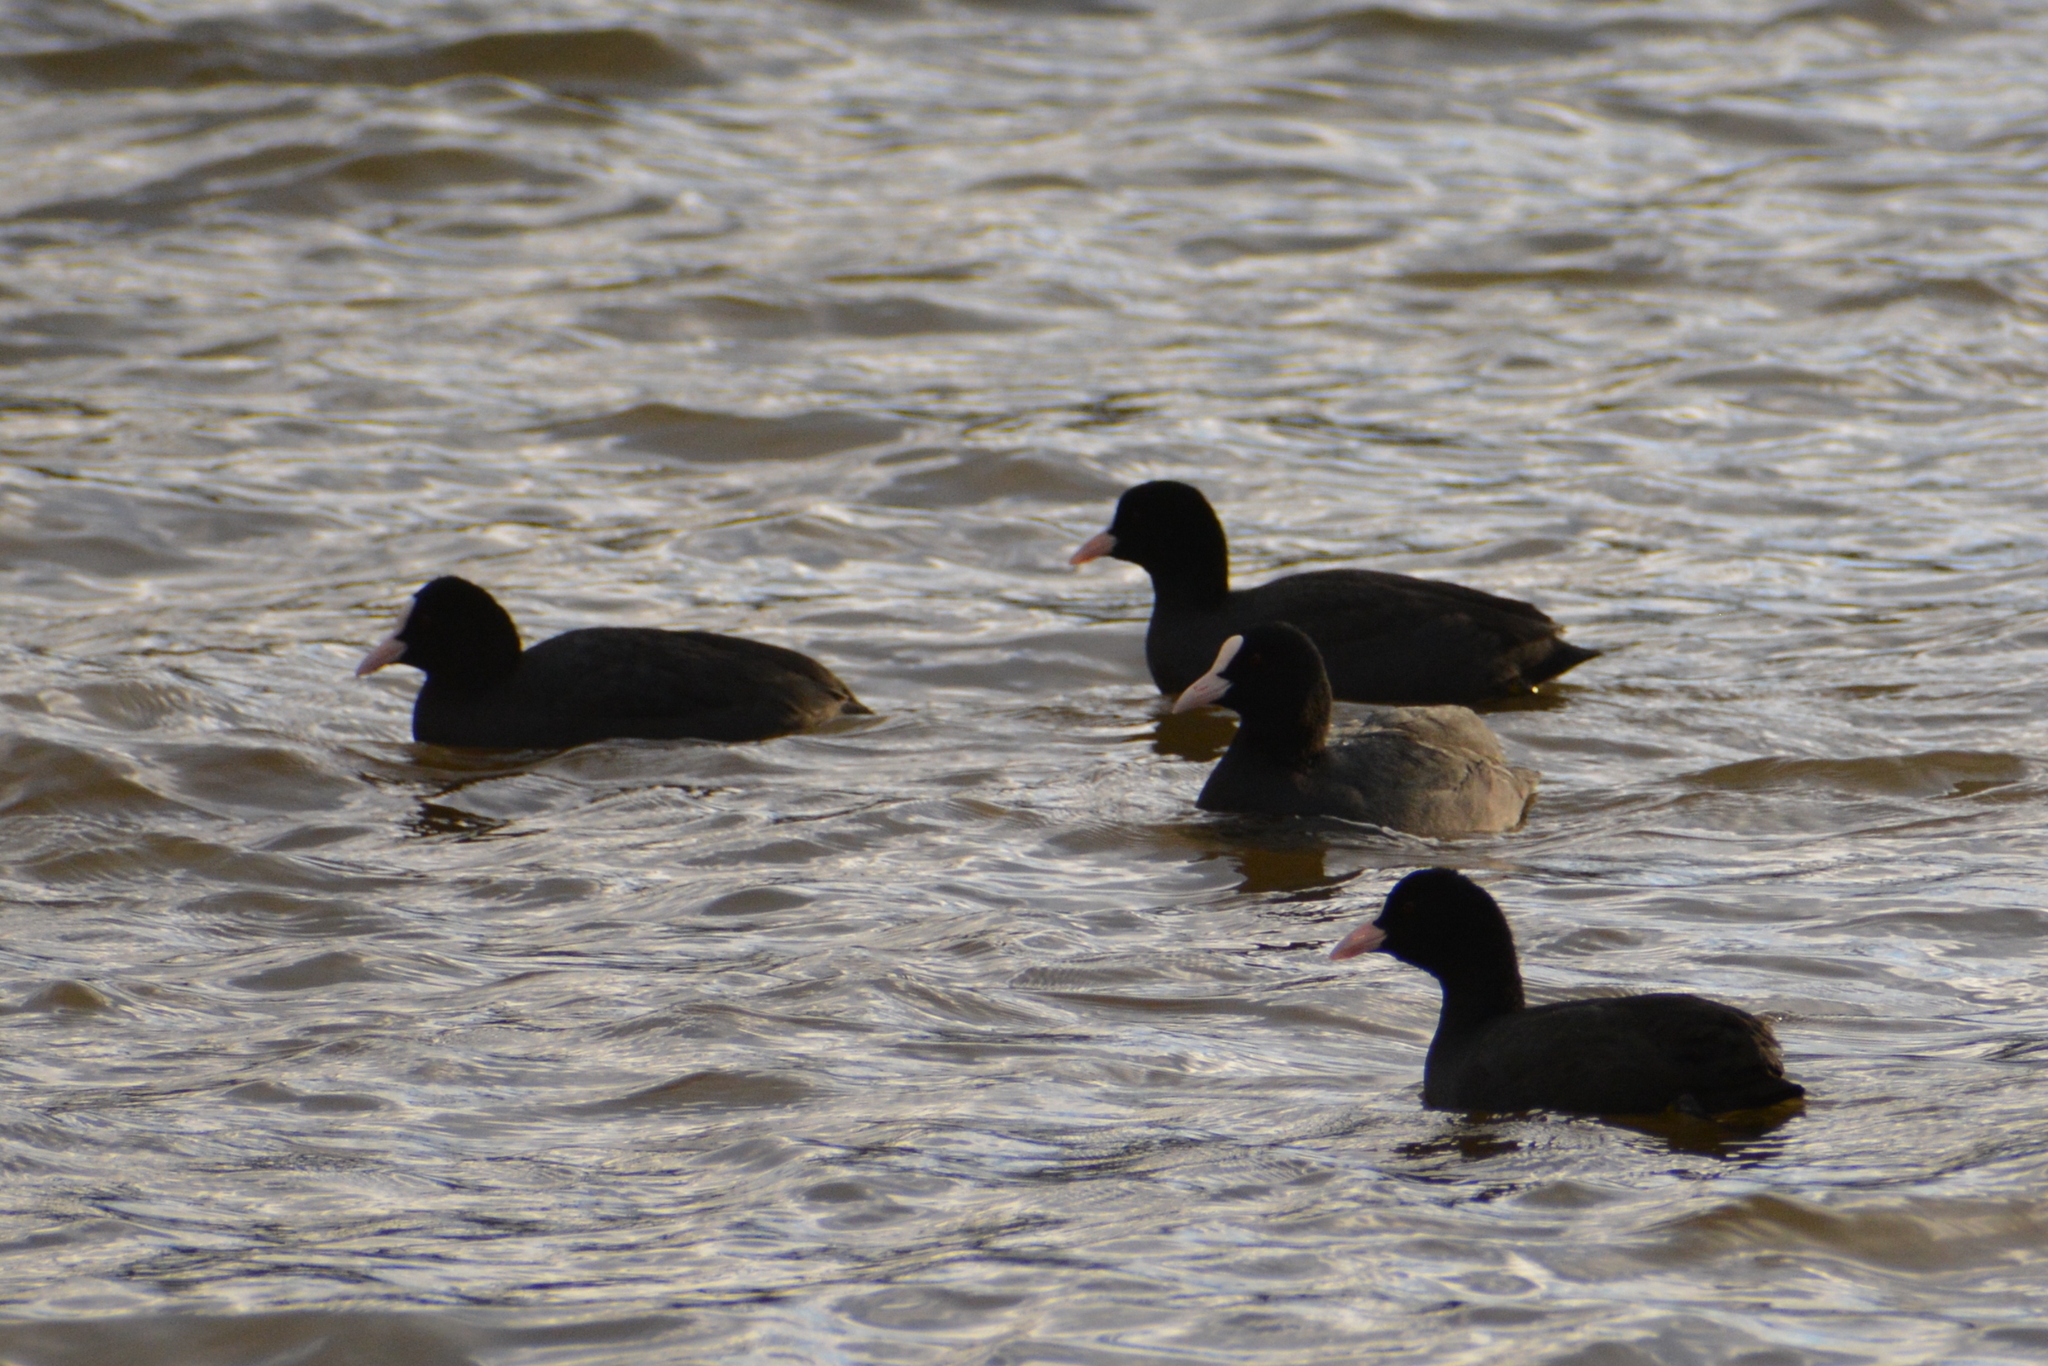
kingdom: Animalia
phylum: Chordata
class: Aves
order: Gruiformes
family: Rallidae
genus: Fulica
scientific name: Fulica atra
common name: Eurasian coot
